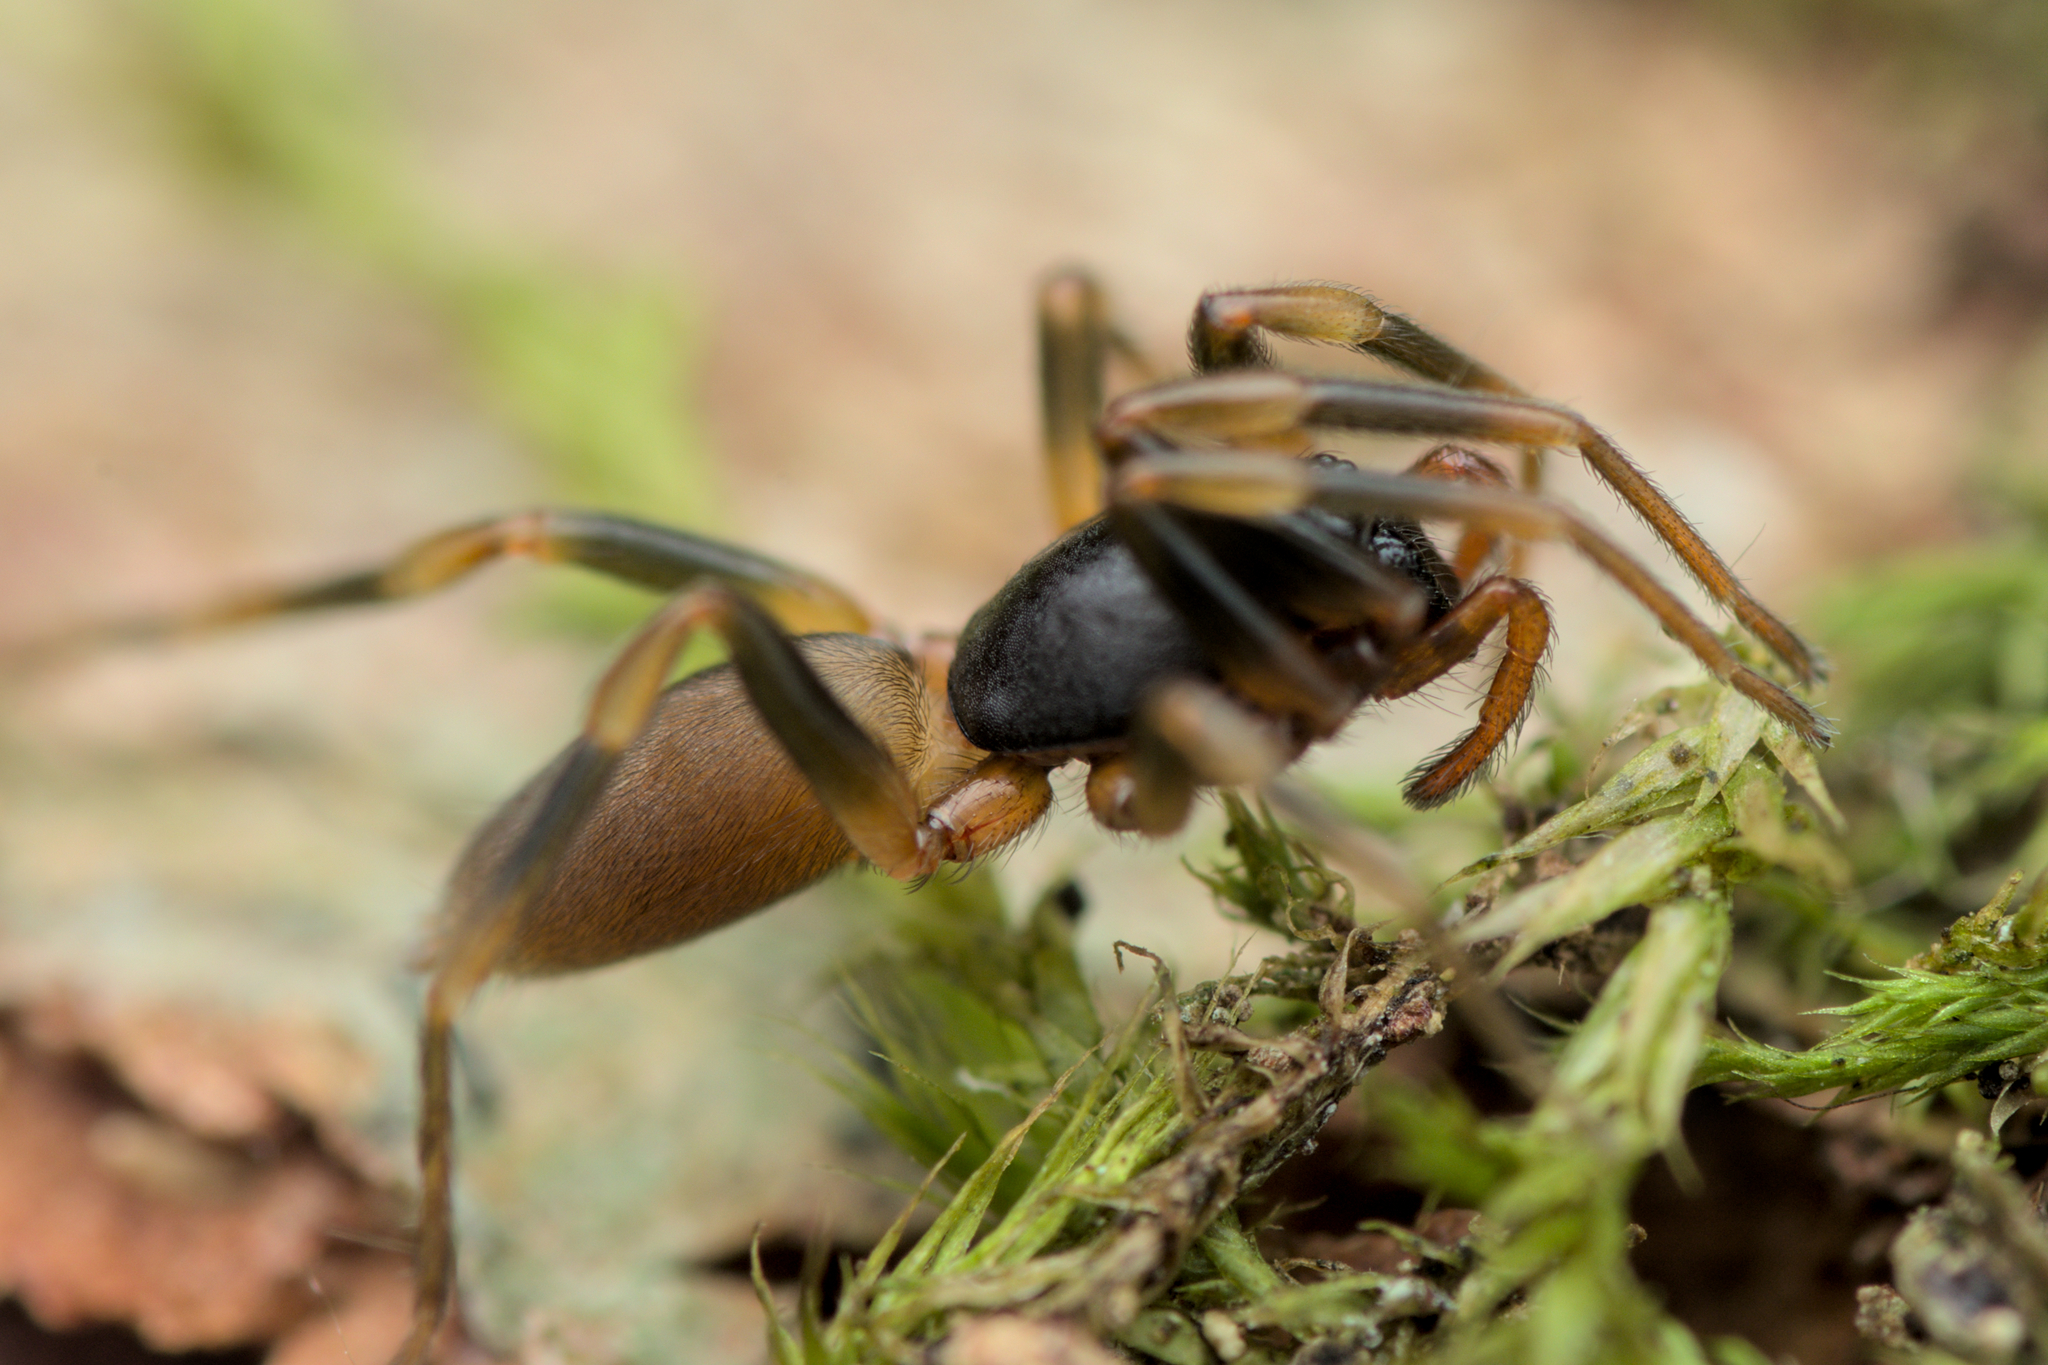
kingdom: Animalia
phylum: Arthropoda
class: Arachnida
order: Araneae
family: Dysderidae
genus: Harpactea
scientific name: Harpactea hombergi
